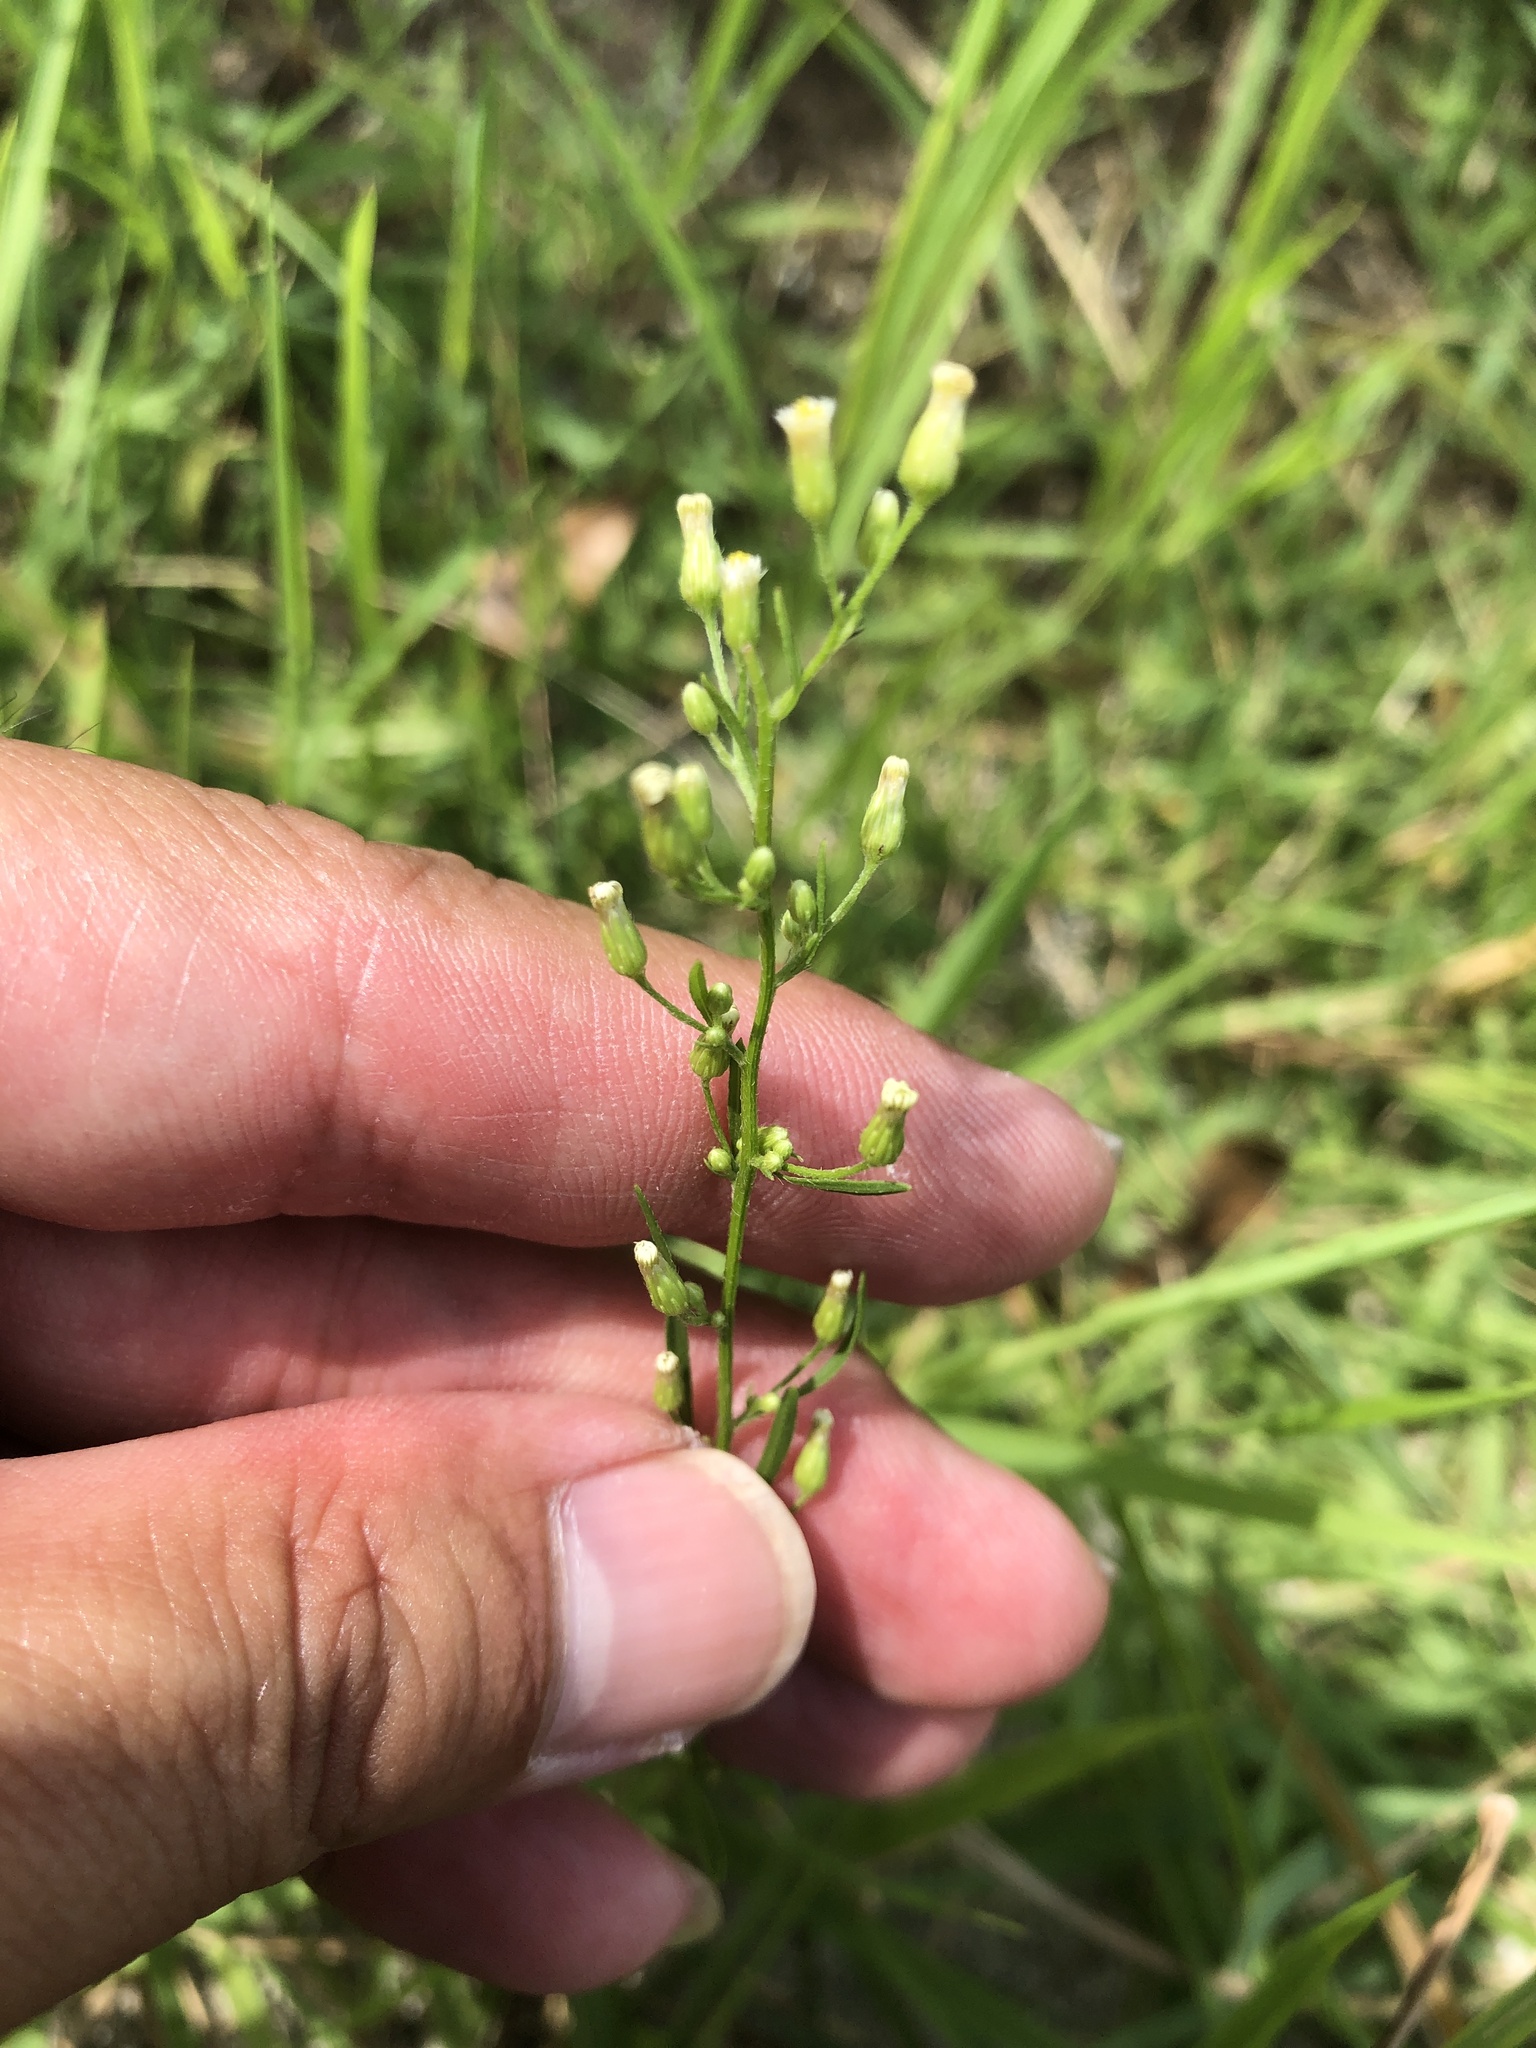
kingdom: Plantae
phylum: Tracheophyta
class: Magnoliopsida
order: Asterales
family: Asteraceae
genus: Erigeron
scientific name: Erigeron canadensis
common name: Canadian fleabane
